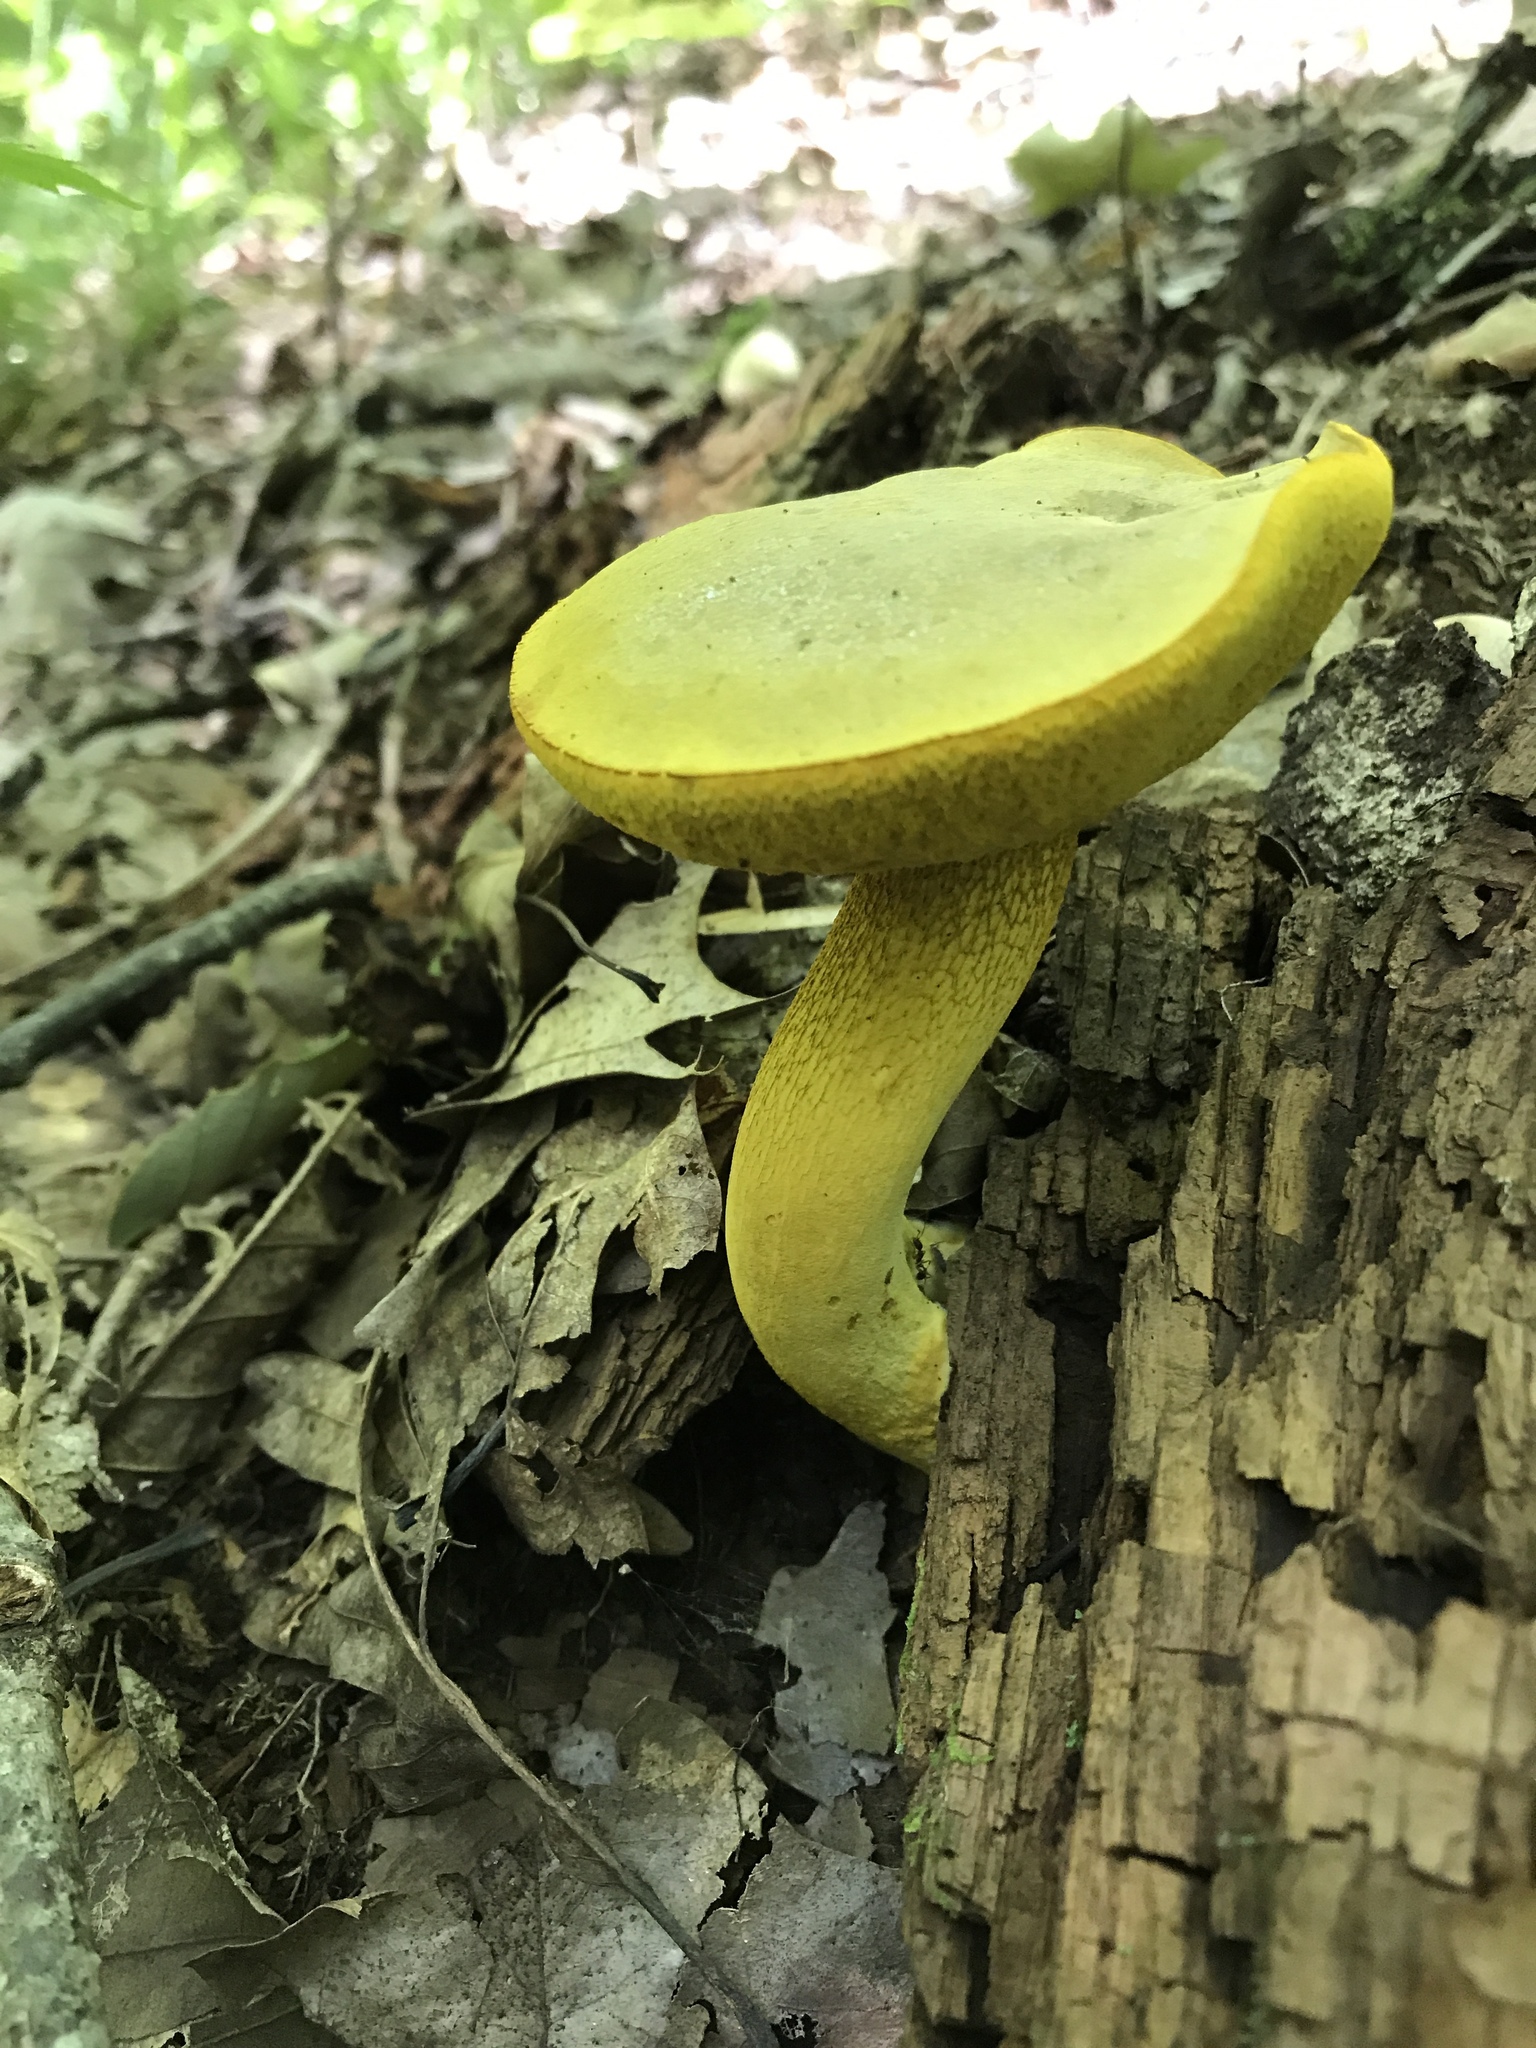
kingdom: Fungi
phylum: Basidiomycota
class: Agaricomycetes
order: Boletales
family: Boletaceae
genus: Retiboletus
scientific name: Retiboletus ornatipes
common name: Ornate-stalked bolete
